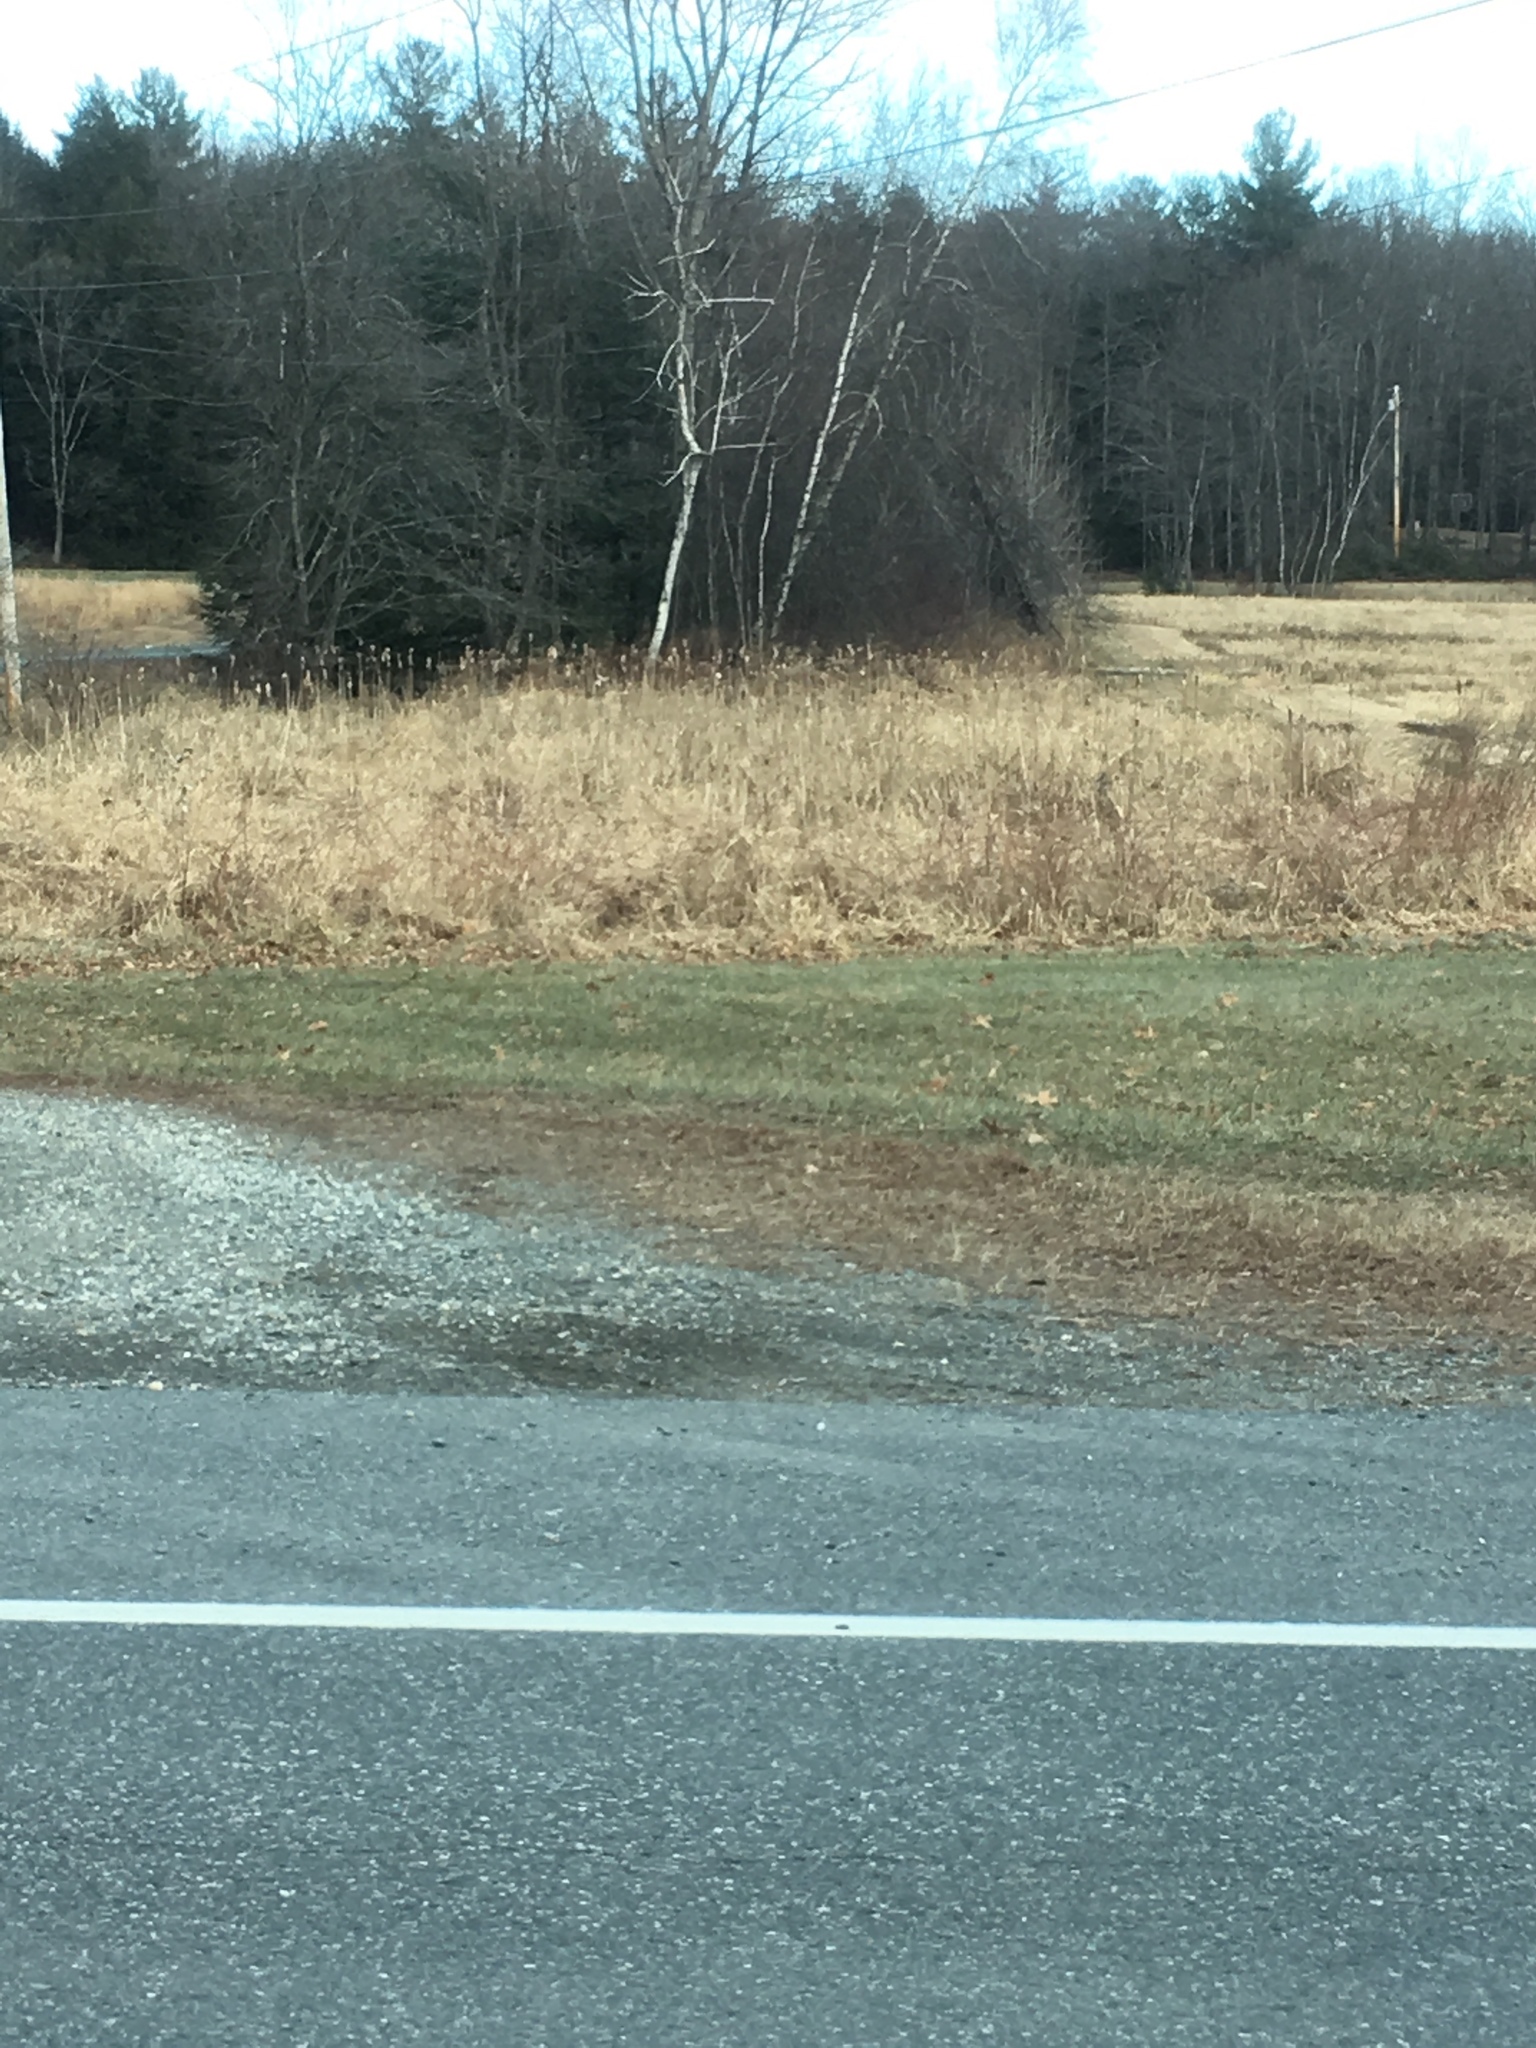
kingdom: Plantae
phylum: Tracheophyta
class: Liliopsida
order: Poales
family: Typhaceae
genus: Typha
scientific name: Typha
